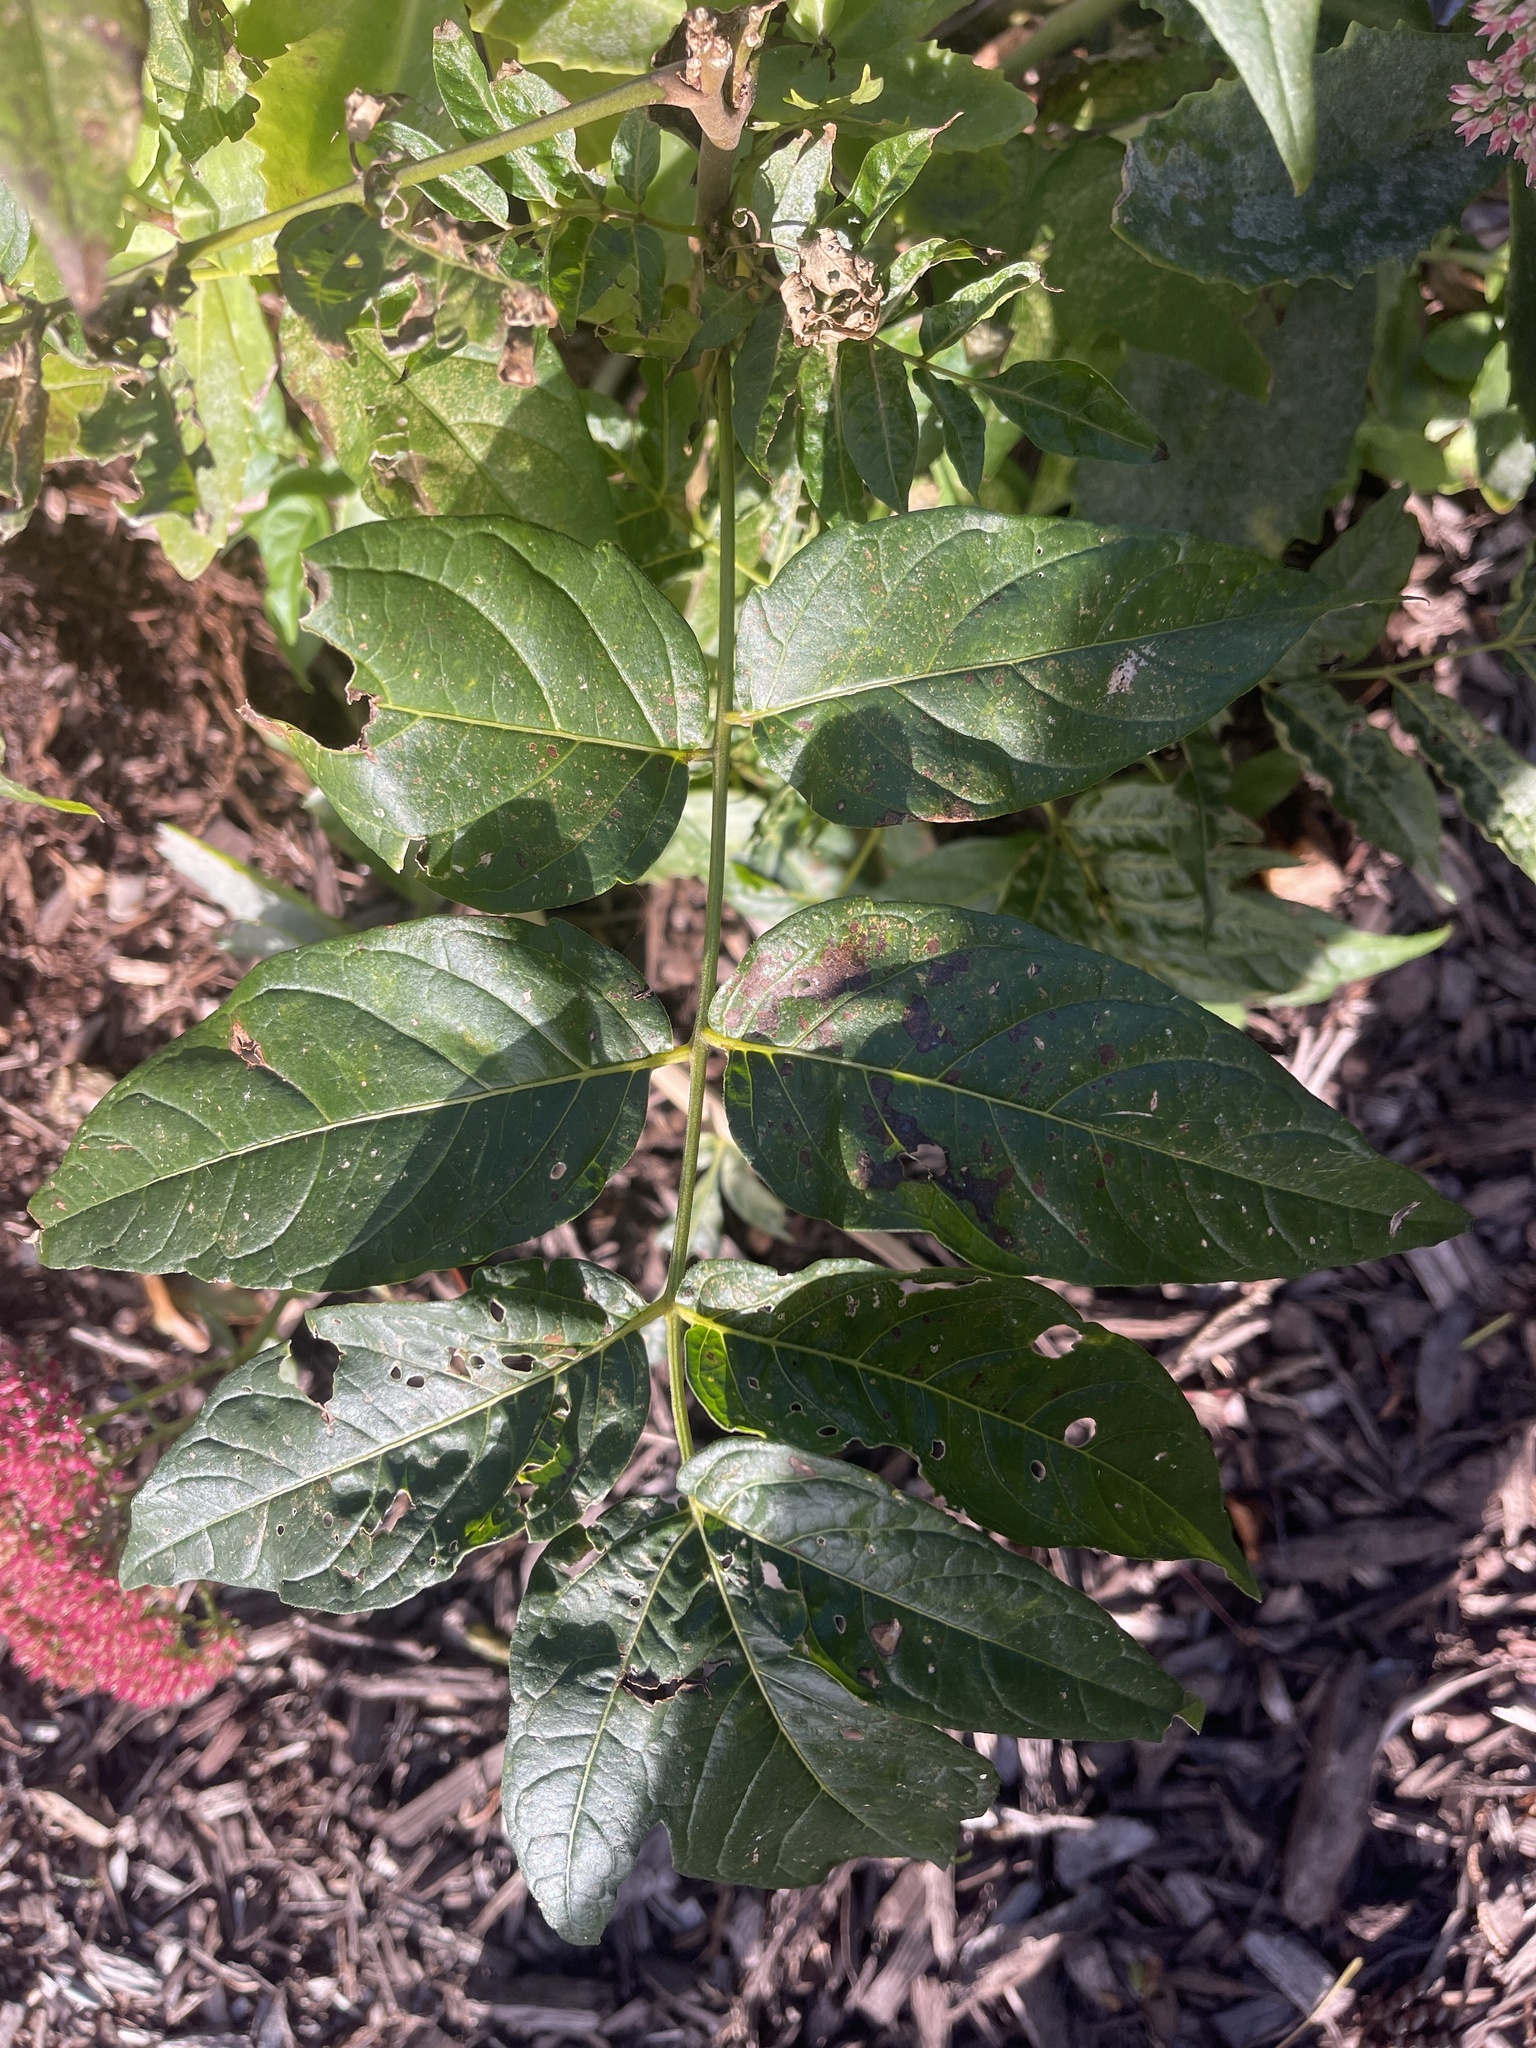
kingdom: Plantae
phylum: Tracheophyta
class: Magnoliopsida
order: Sapindales
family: Simaroubaceae
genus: Ailanthus
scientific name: Ailanthus altissima
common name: Tree-of-heaven
